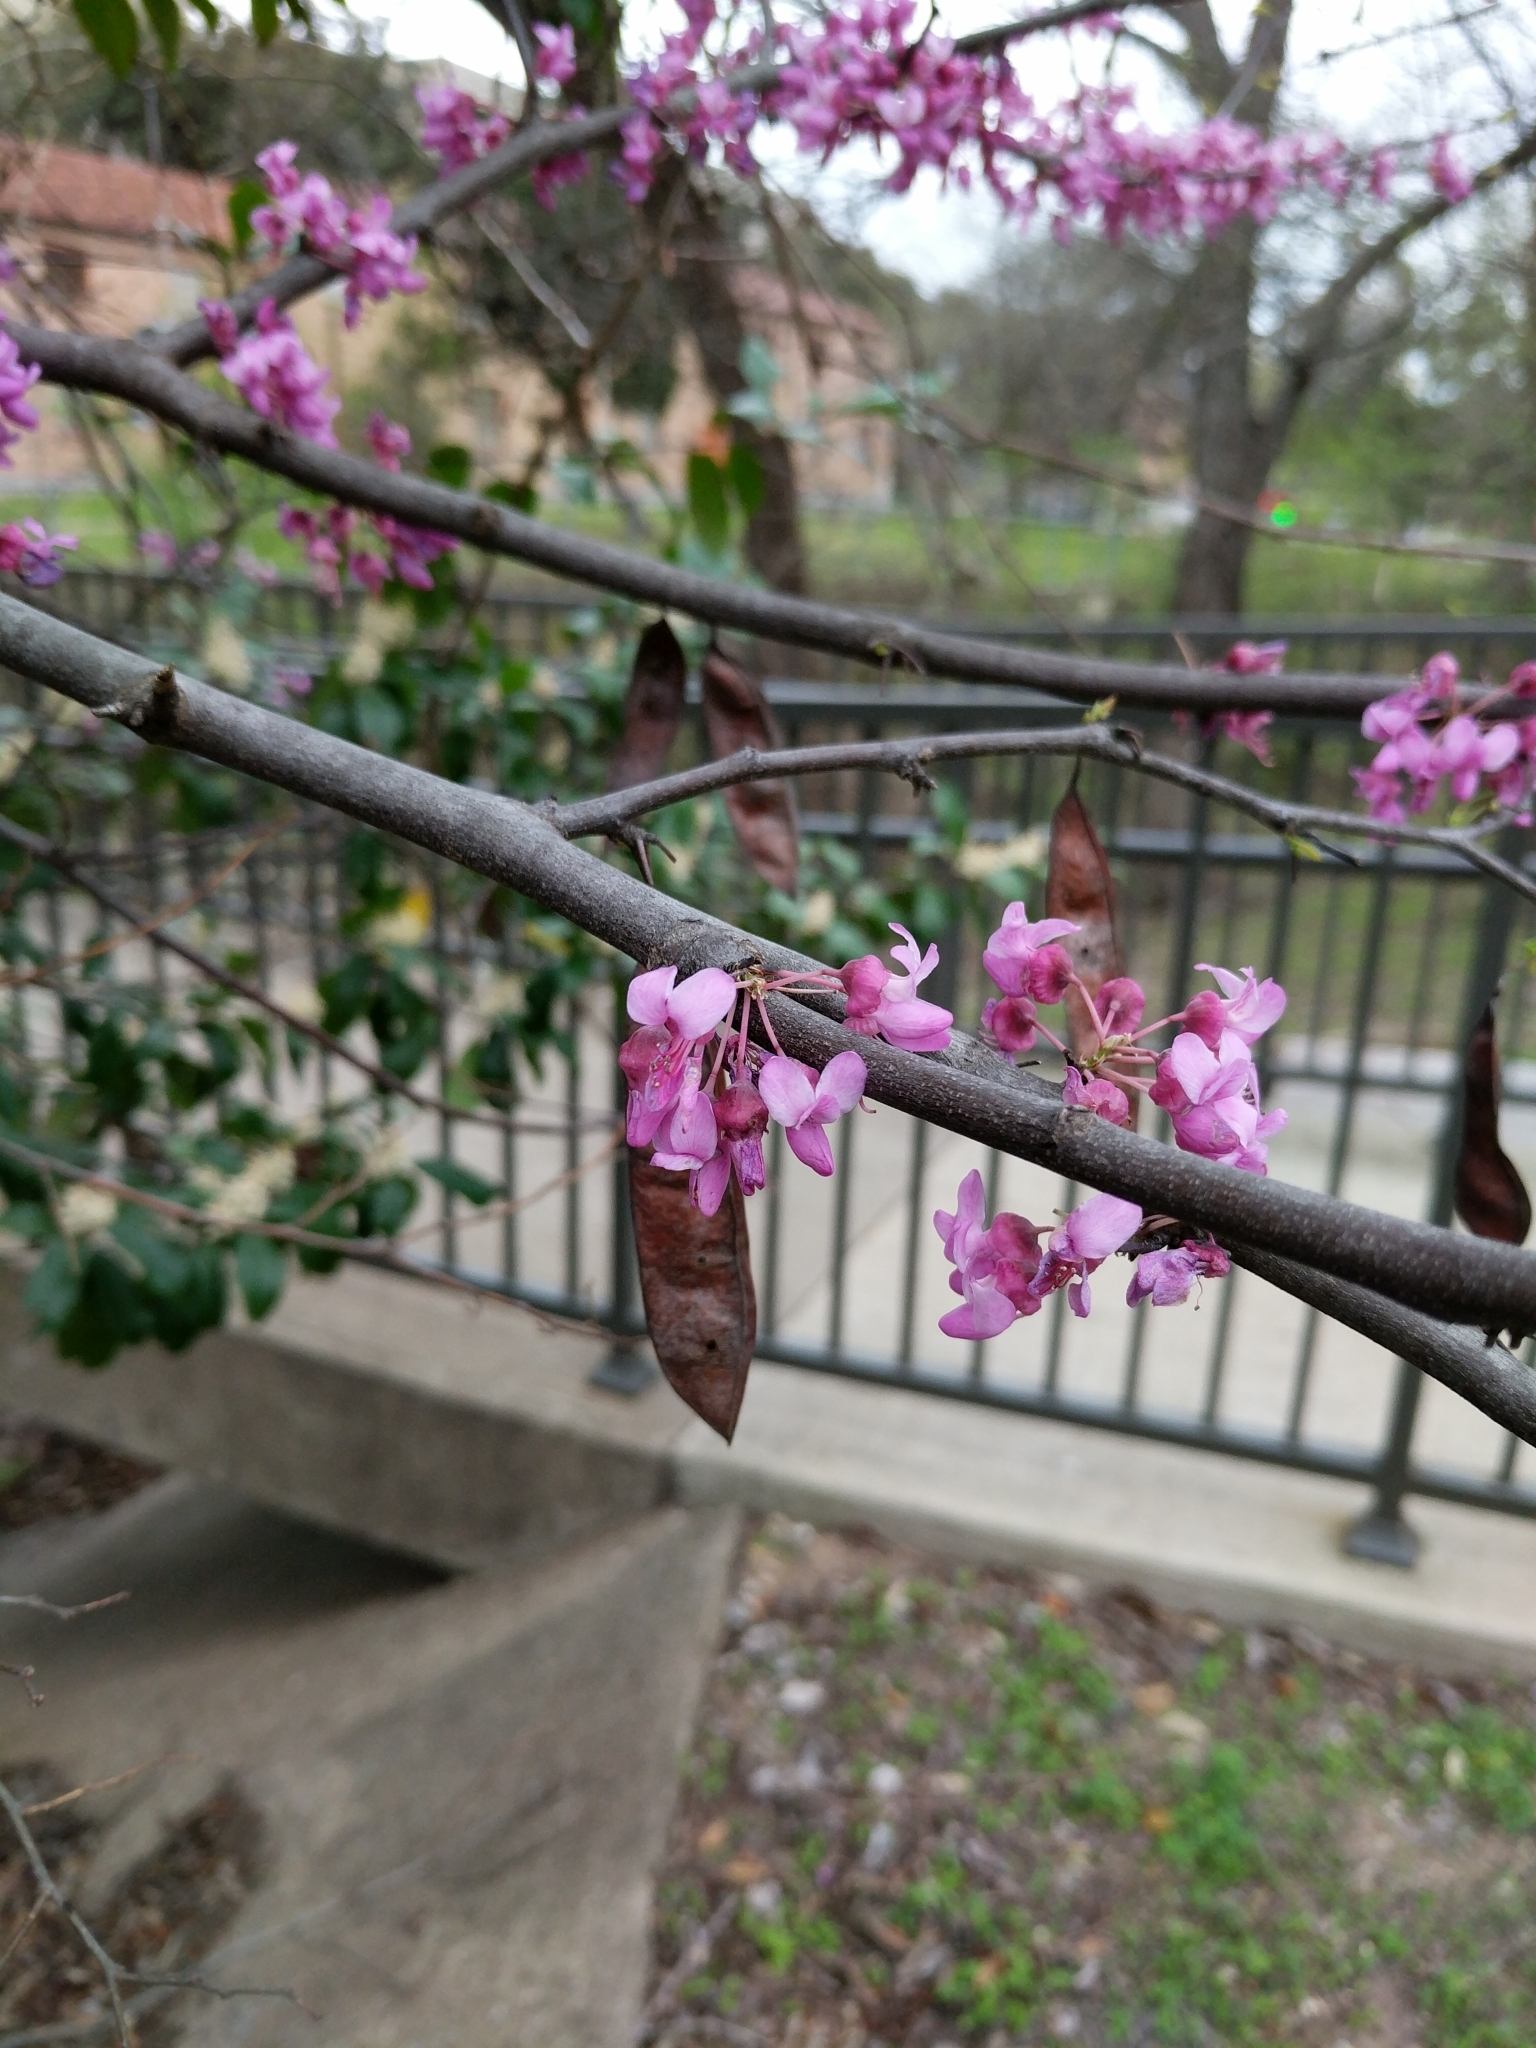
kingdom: Plantae
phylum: Tracheophyta
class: Magnoliopsida
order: Fabales
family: Fabaceae
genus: Cercis
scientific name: Cercis canadensis
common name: Eastern redbud
